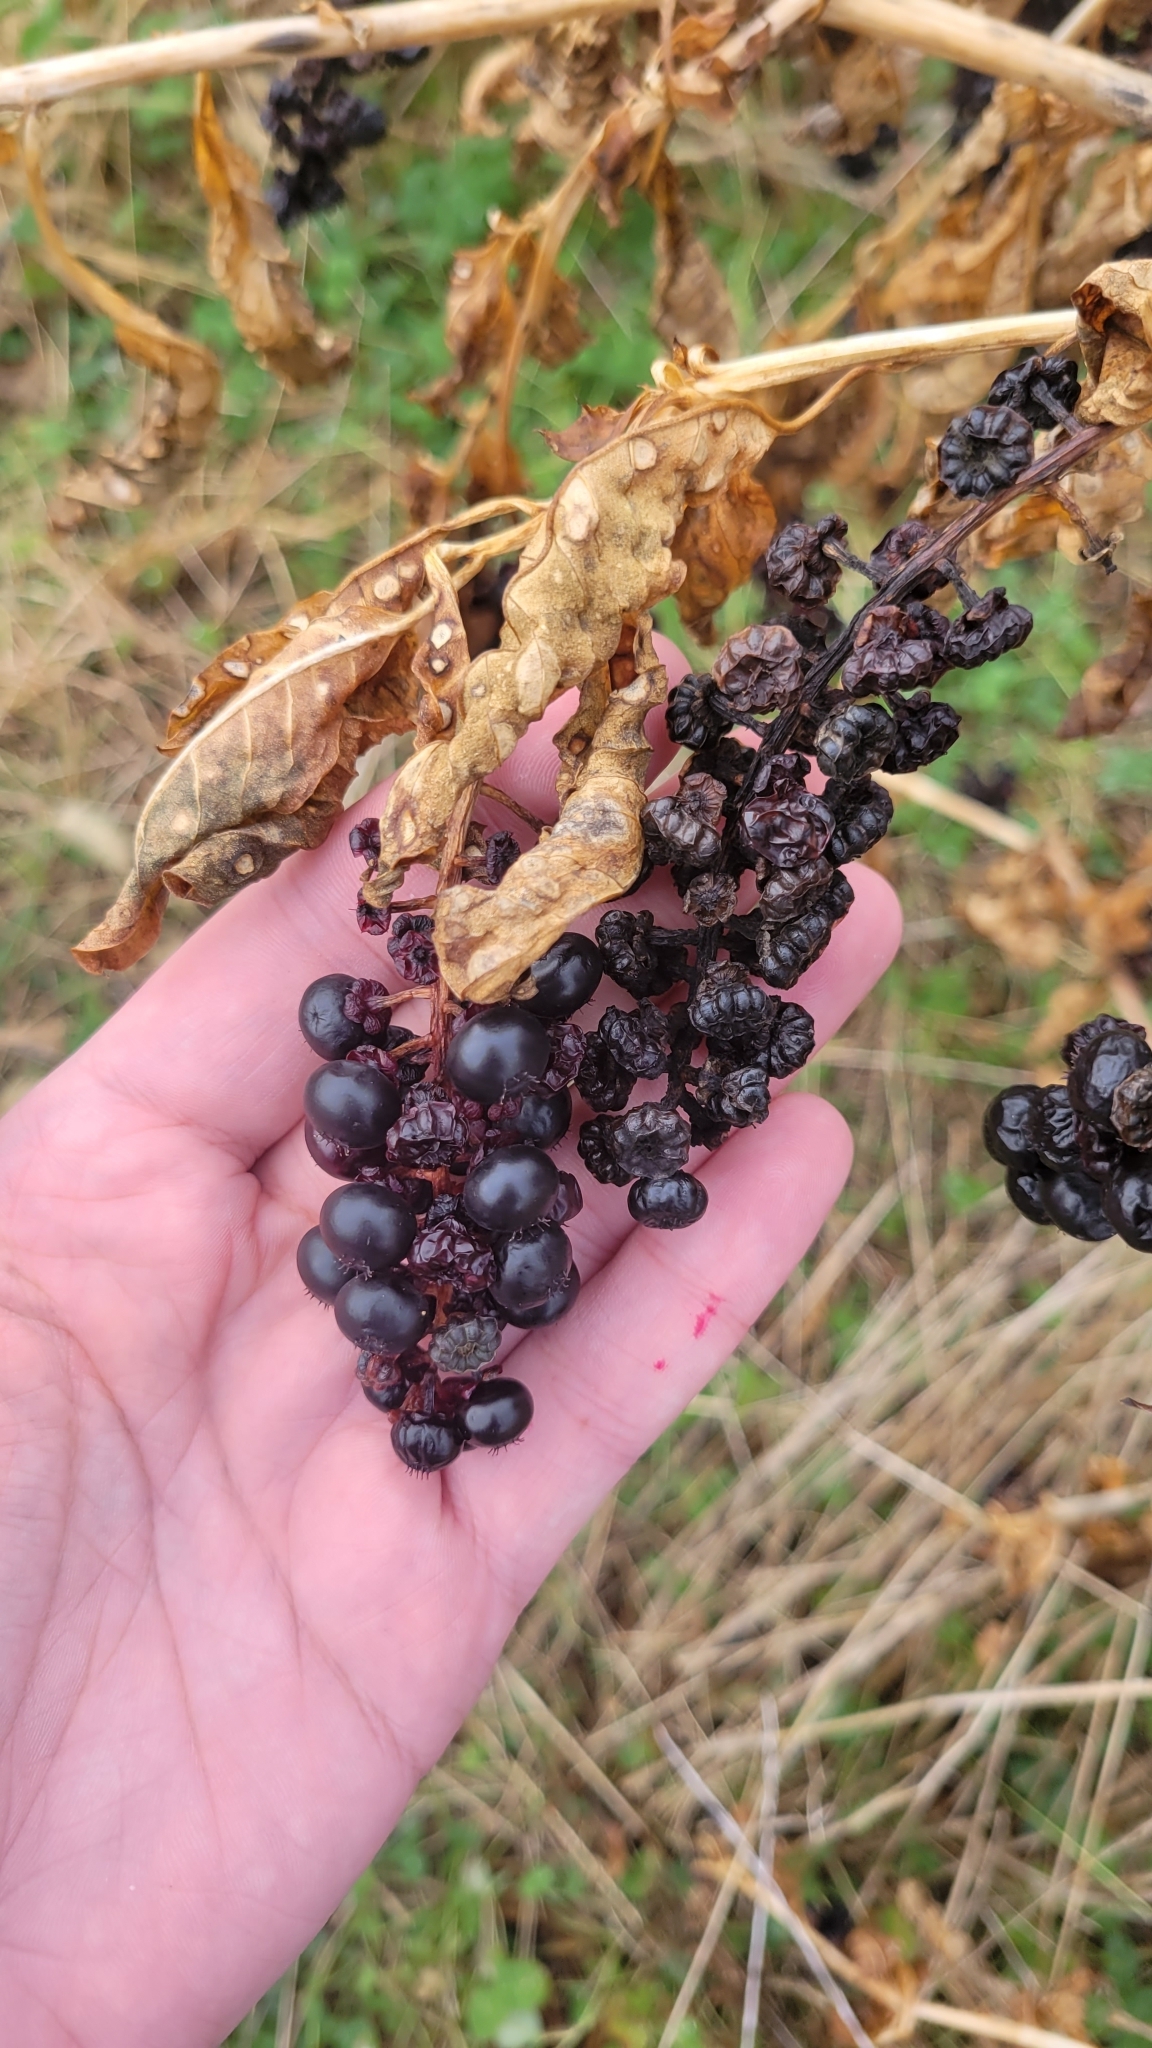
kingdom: Plantae
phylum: Tracheophyta
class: Magnoliopsida
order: Caryophyllales
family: Phytolaccaceae
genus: Phytolacca
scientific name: Phytolacca americana
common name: American pokeweed
